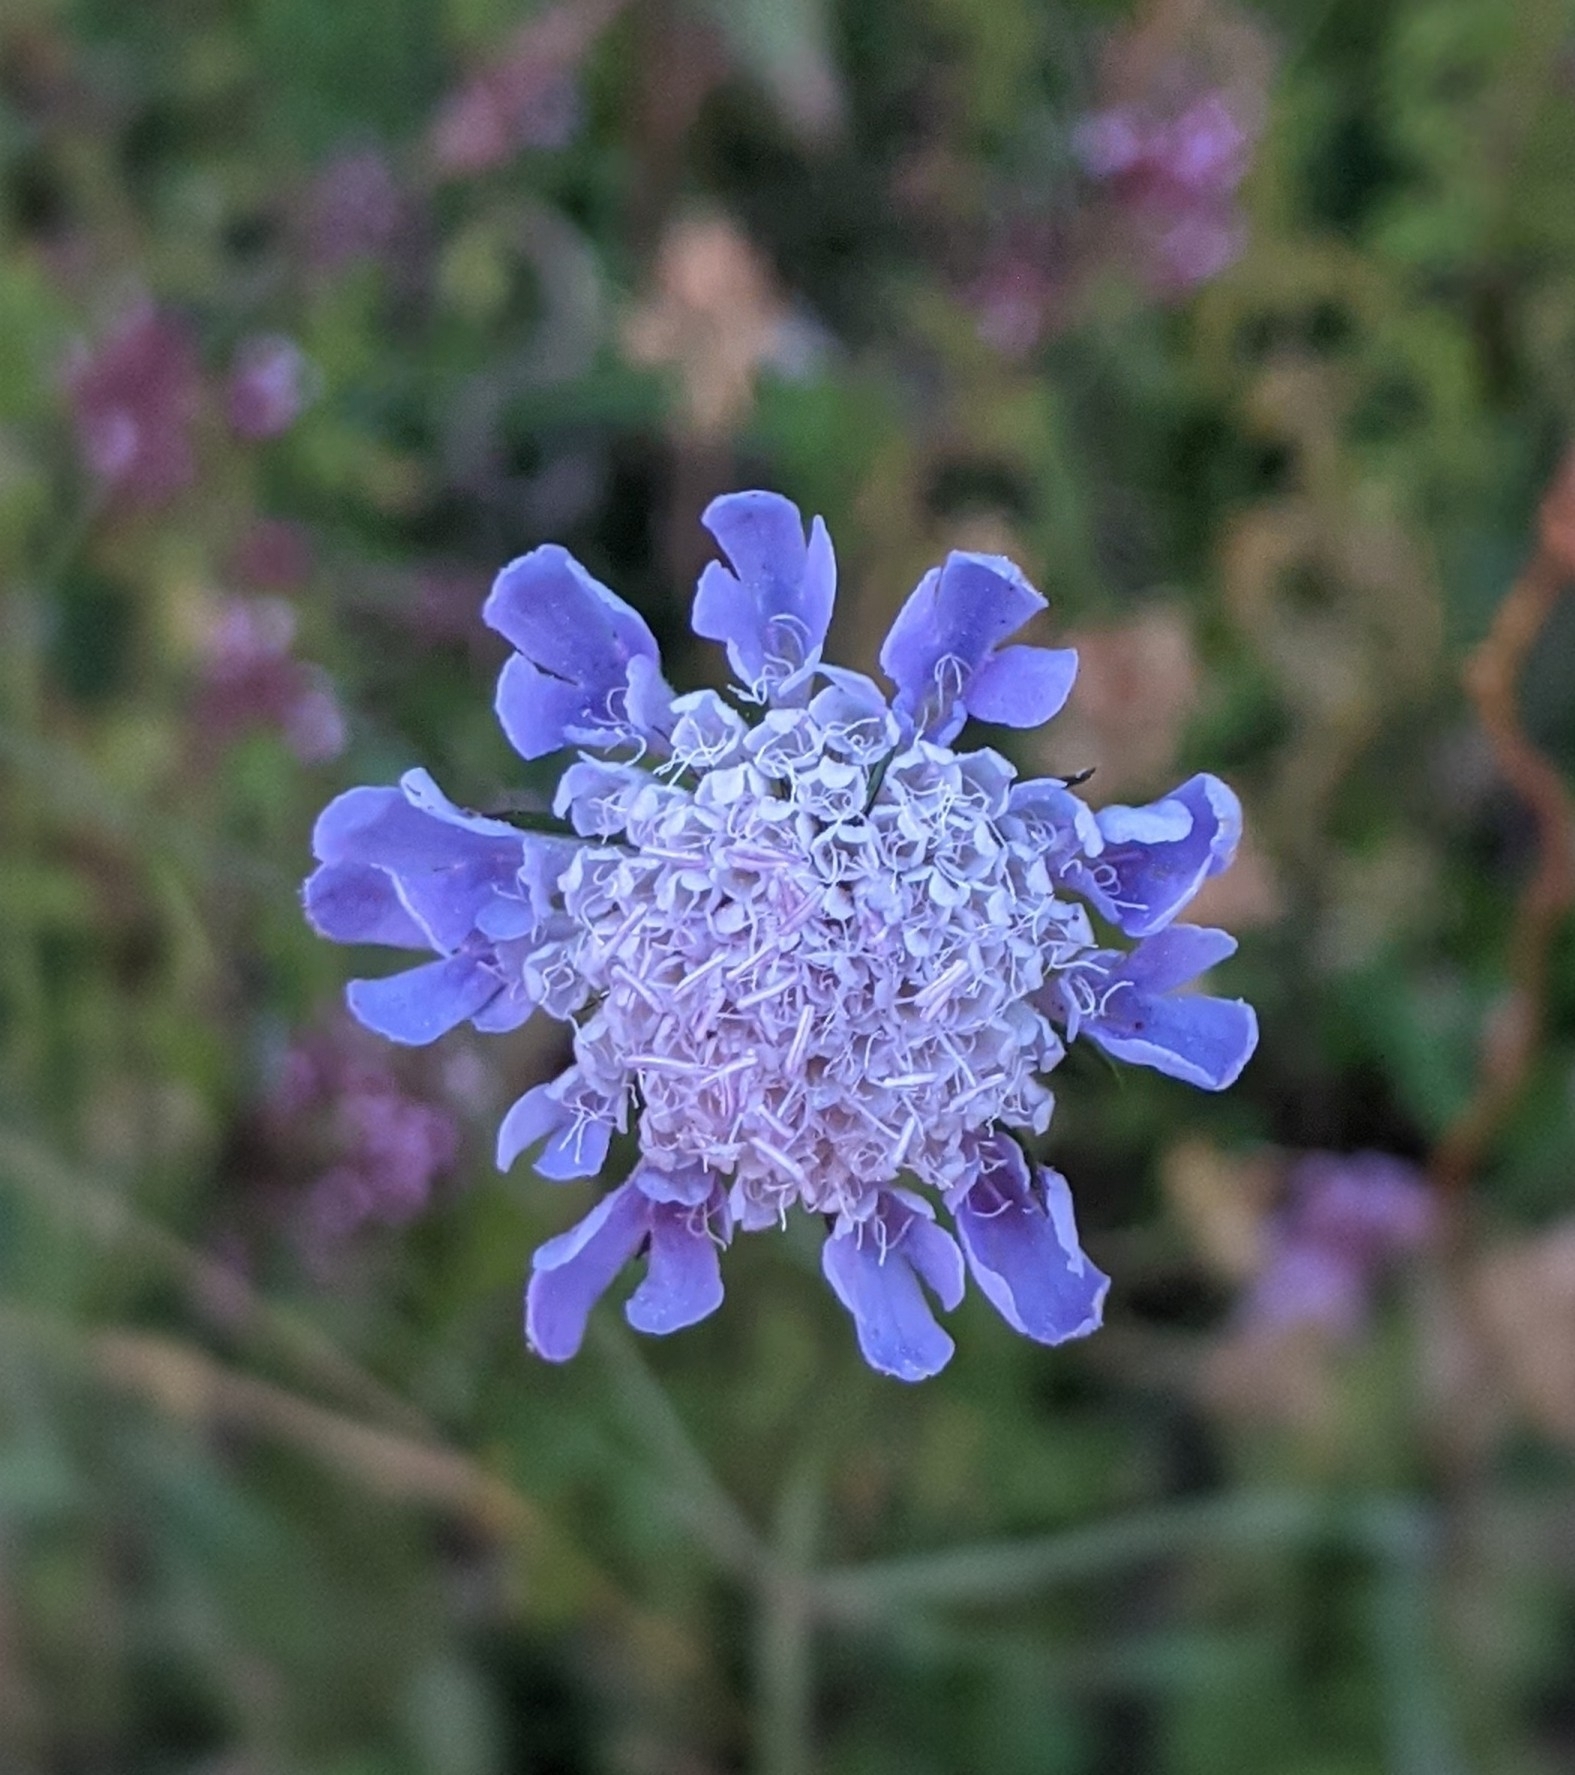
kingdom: Plantae
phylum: Tracheophyta
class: Magnoliopsida
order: Dipsacales
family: Caprifoliaceae
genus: Scabiosa
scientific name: Scabiosa columbaria
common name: Small scabious
